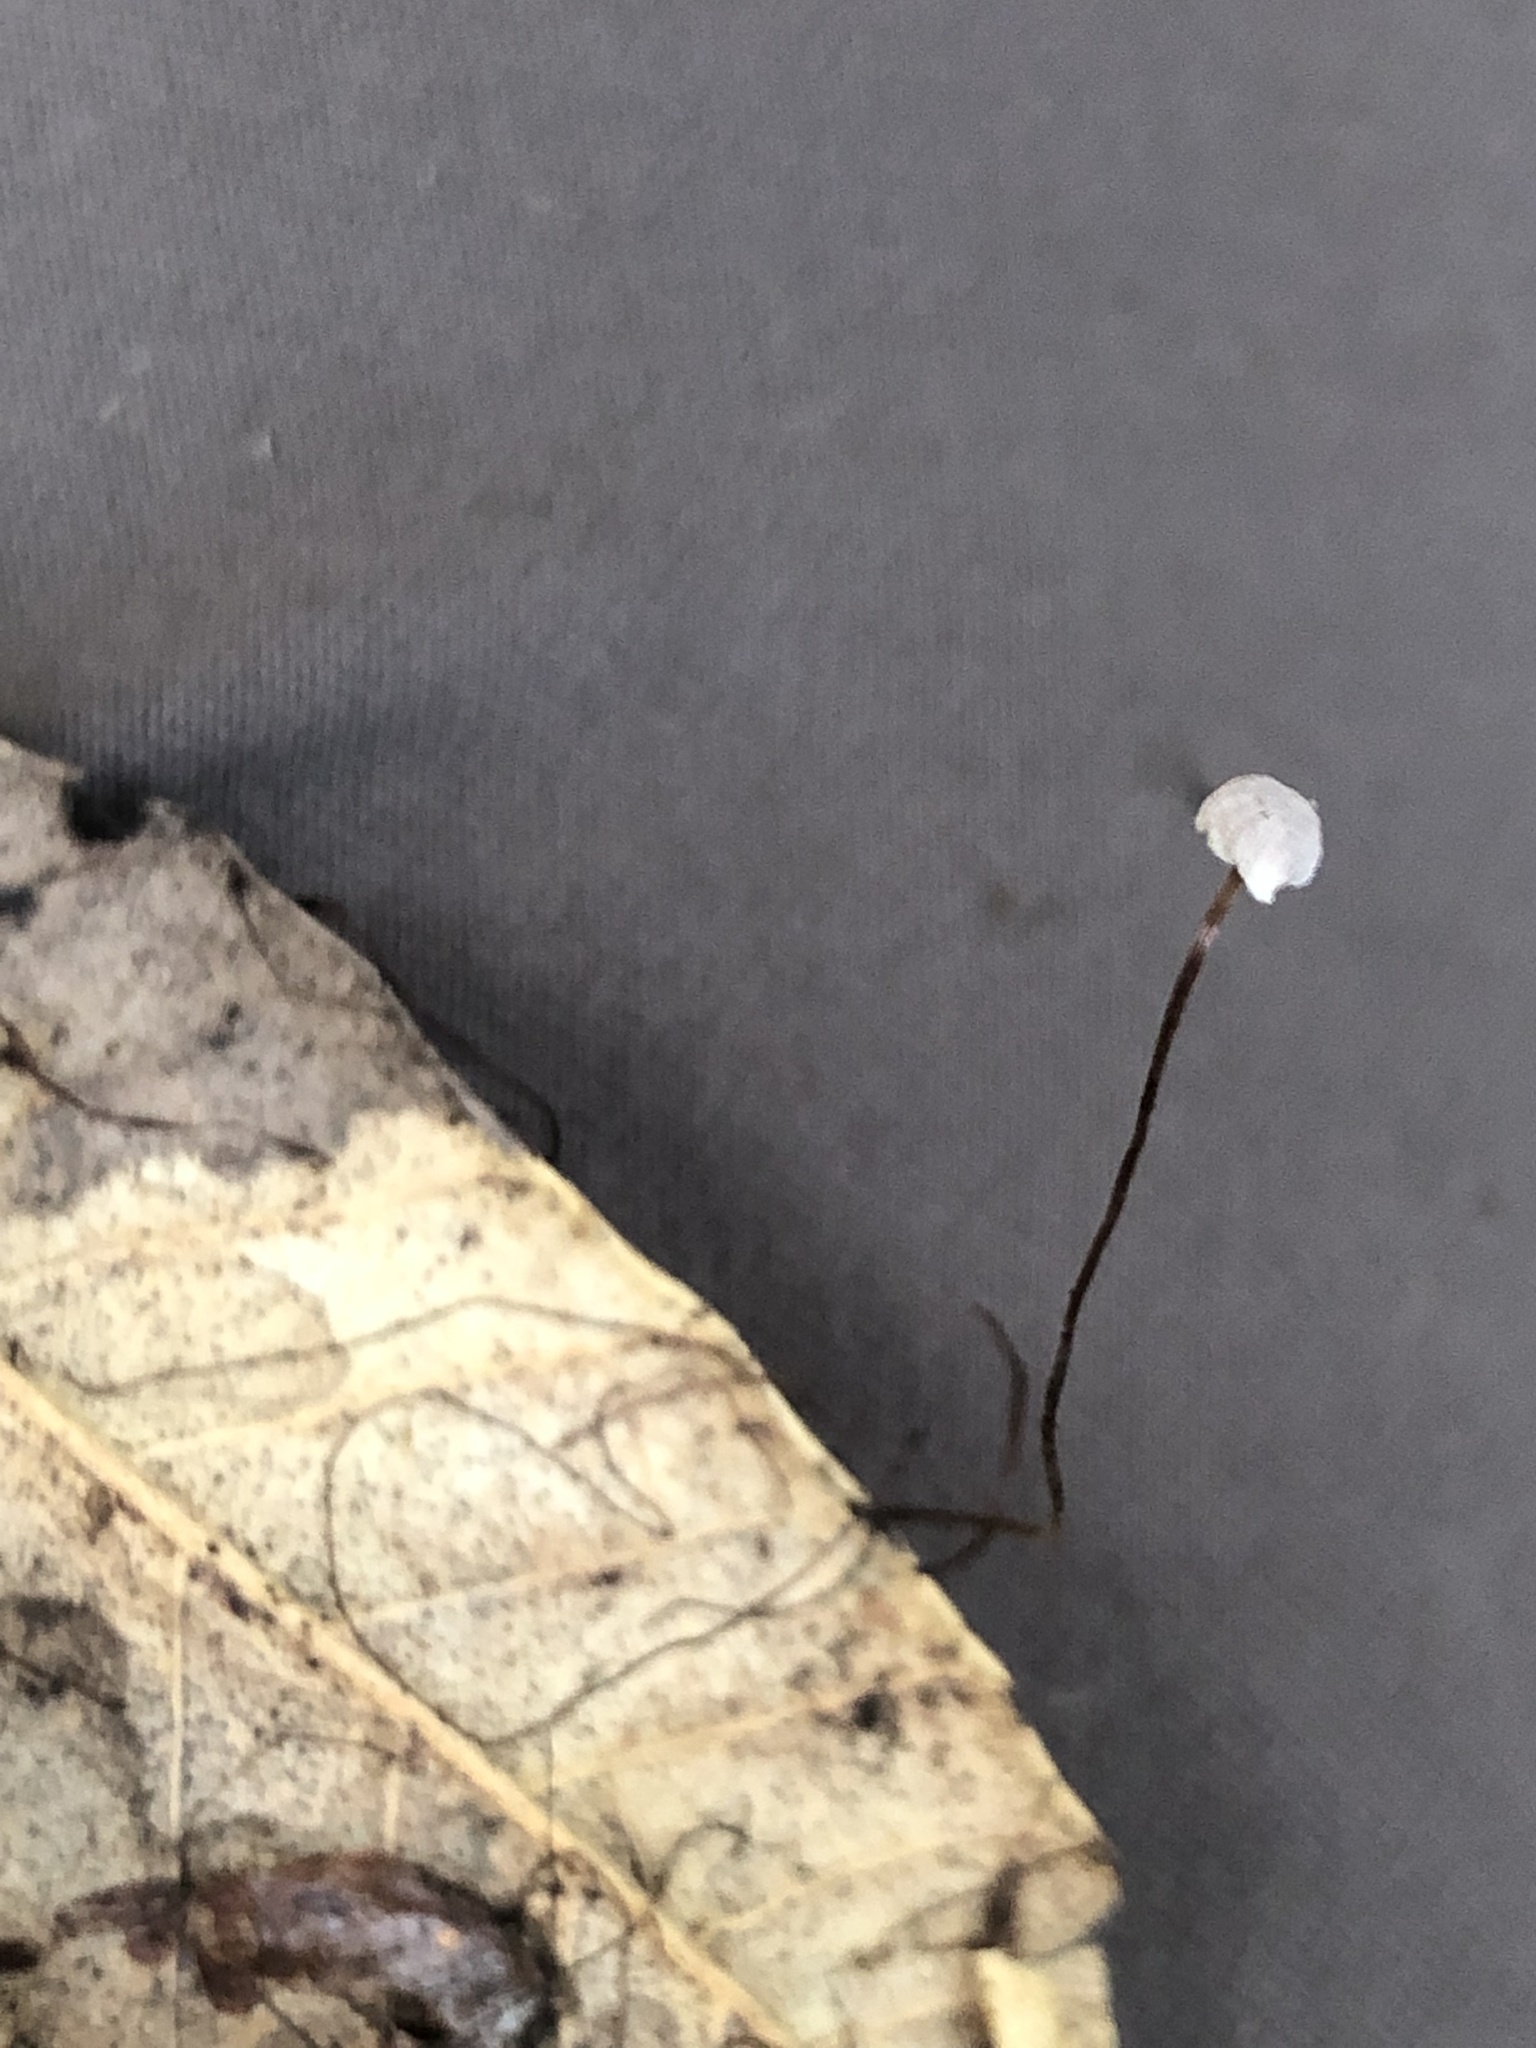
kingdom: Fungi
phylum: Basidiomycota
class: Agaricomycetes
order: Agaricales
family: Omphalotaceae
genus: Collybiopsis
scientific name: Collybiopsis quercophila
